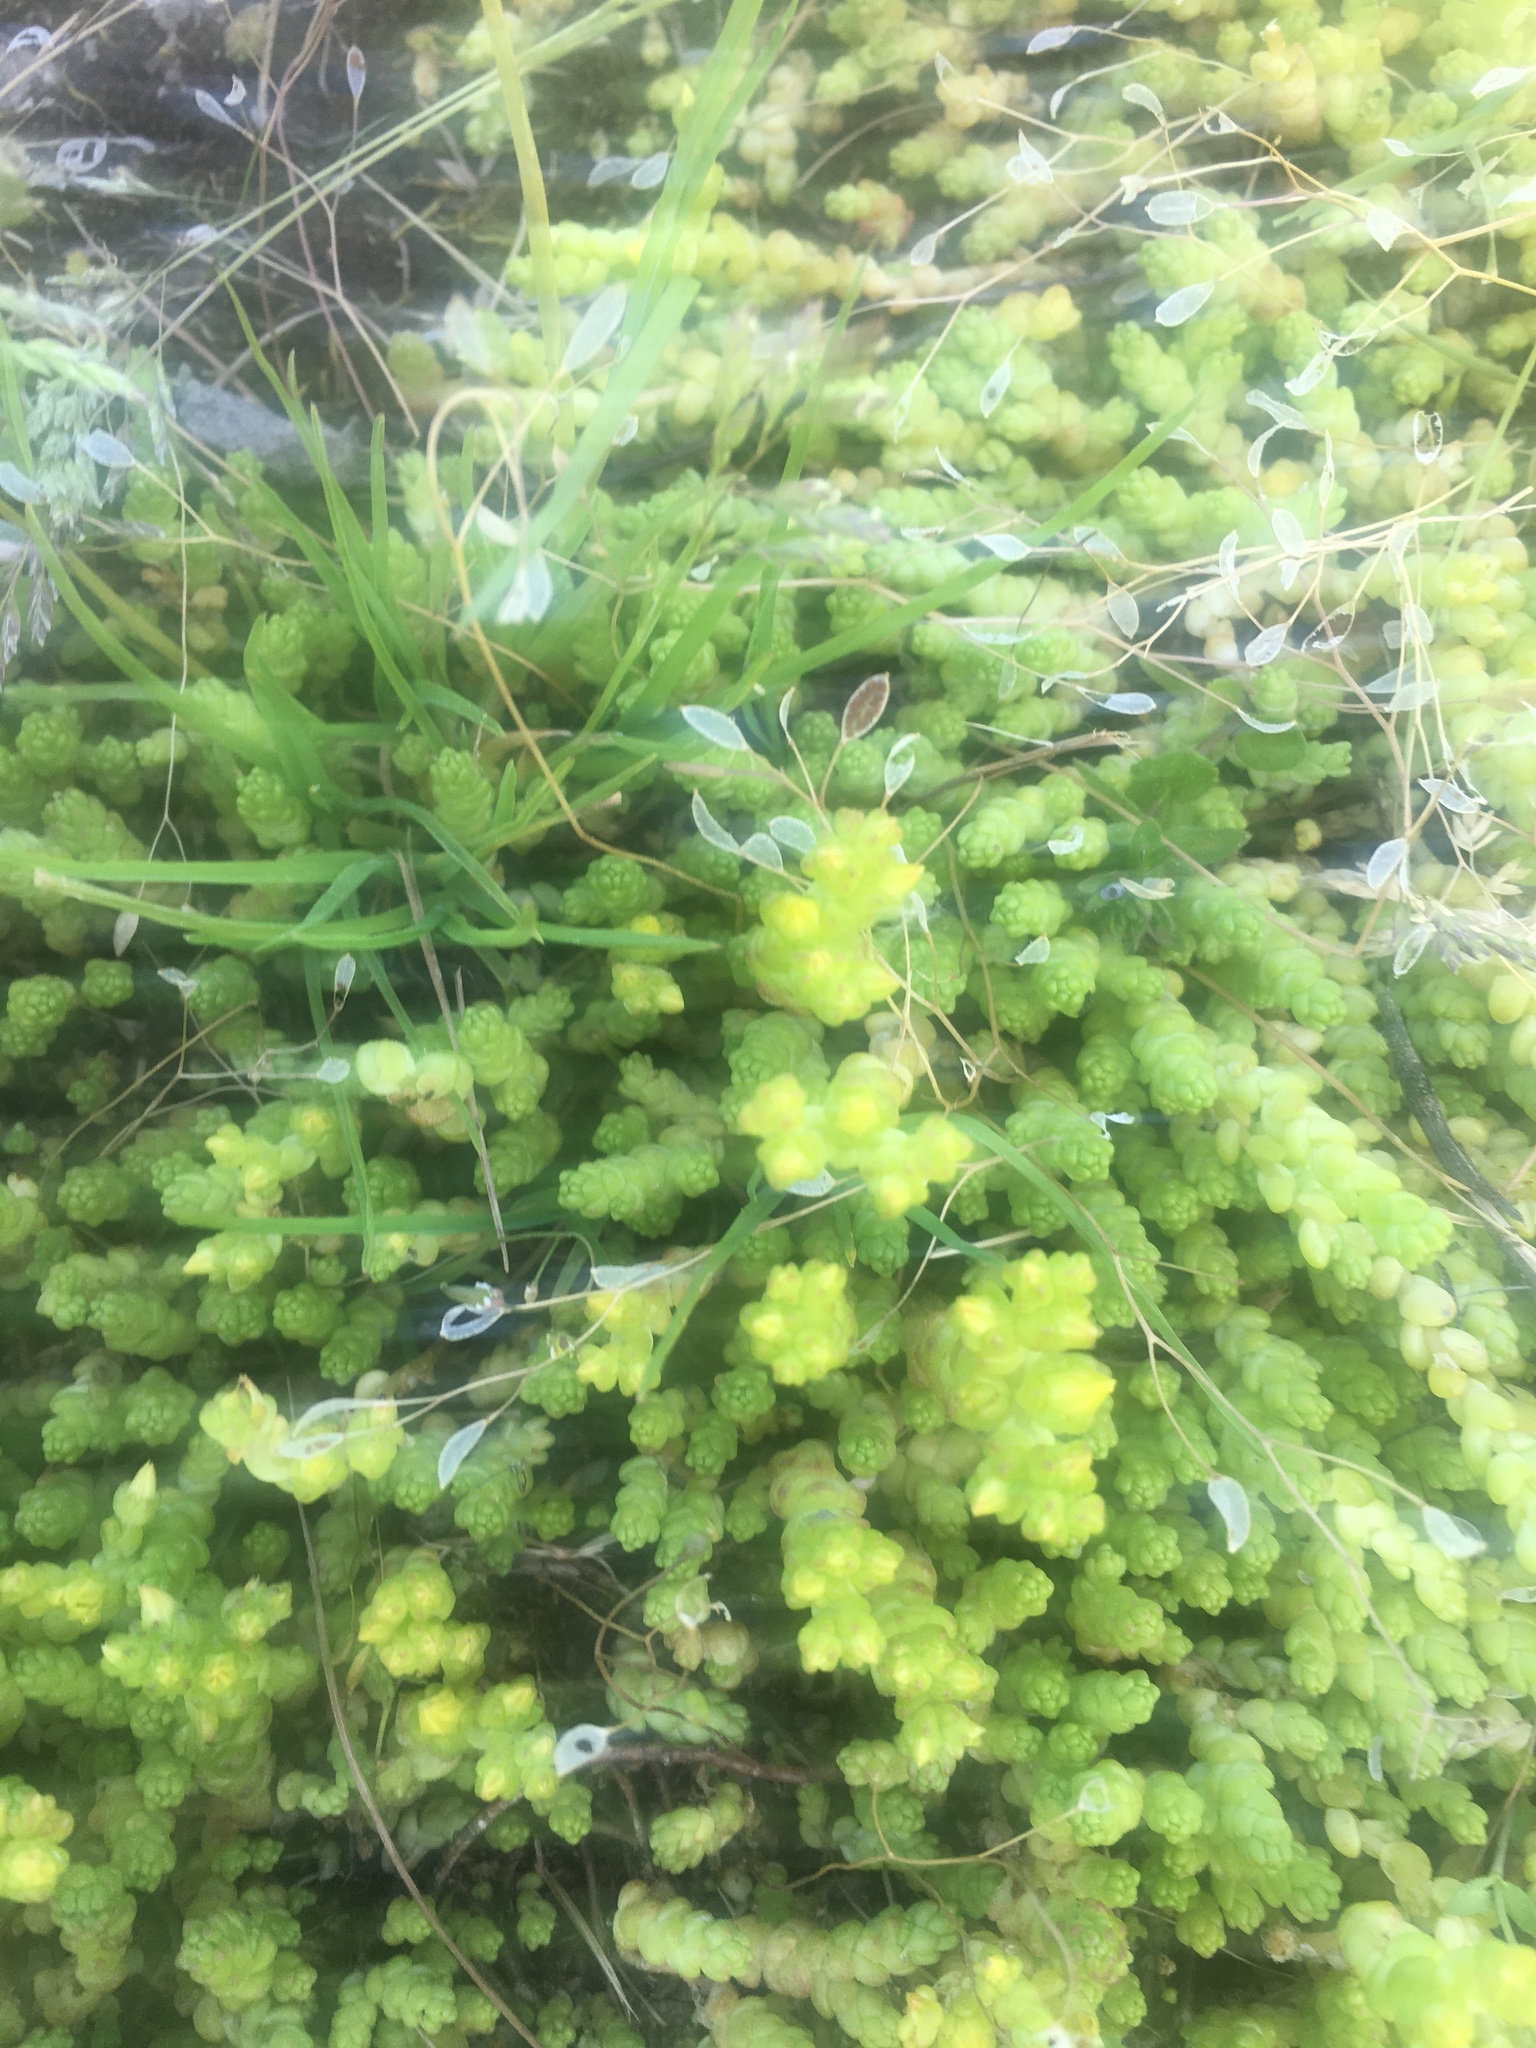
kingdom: Plantae
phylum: Tracheophyta
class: Magnoliopsida
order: Saxifragales
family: Crassulaceae
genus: Sedum
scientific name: Sedum acre
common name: Biting stonecrop
